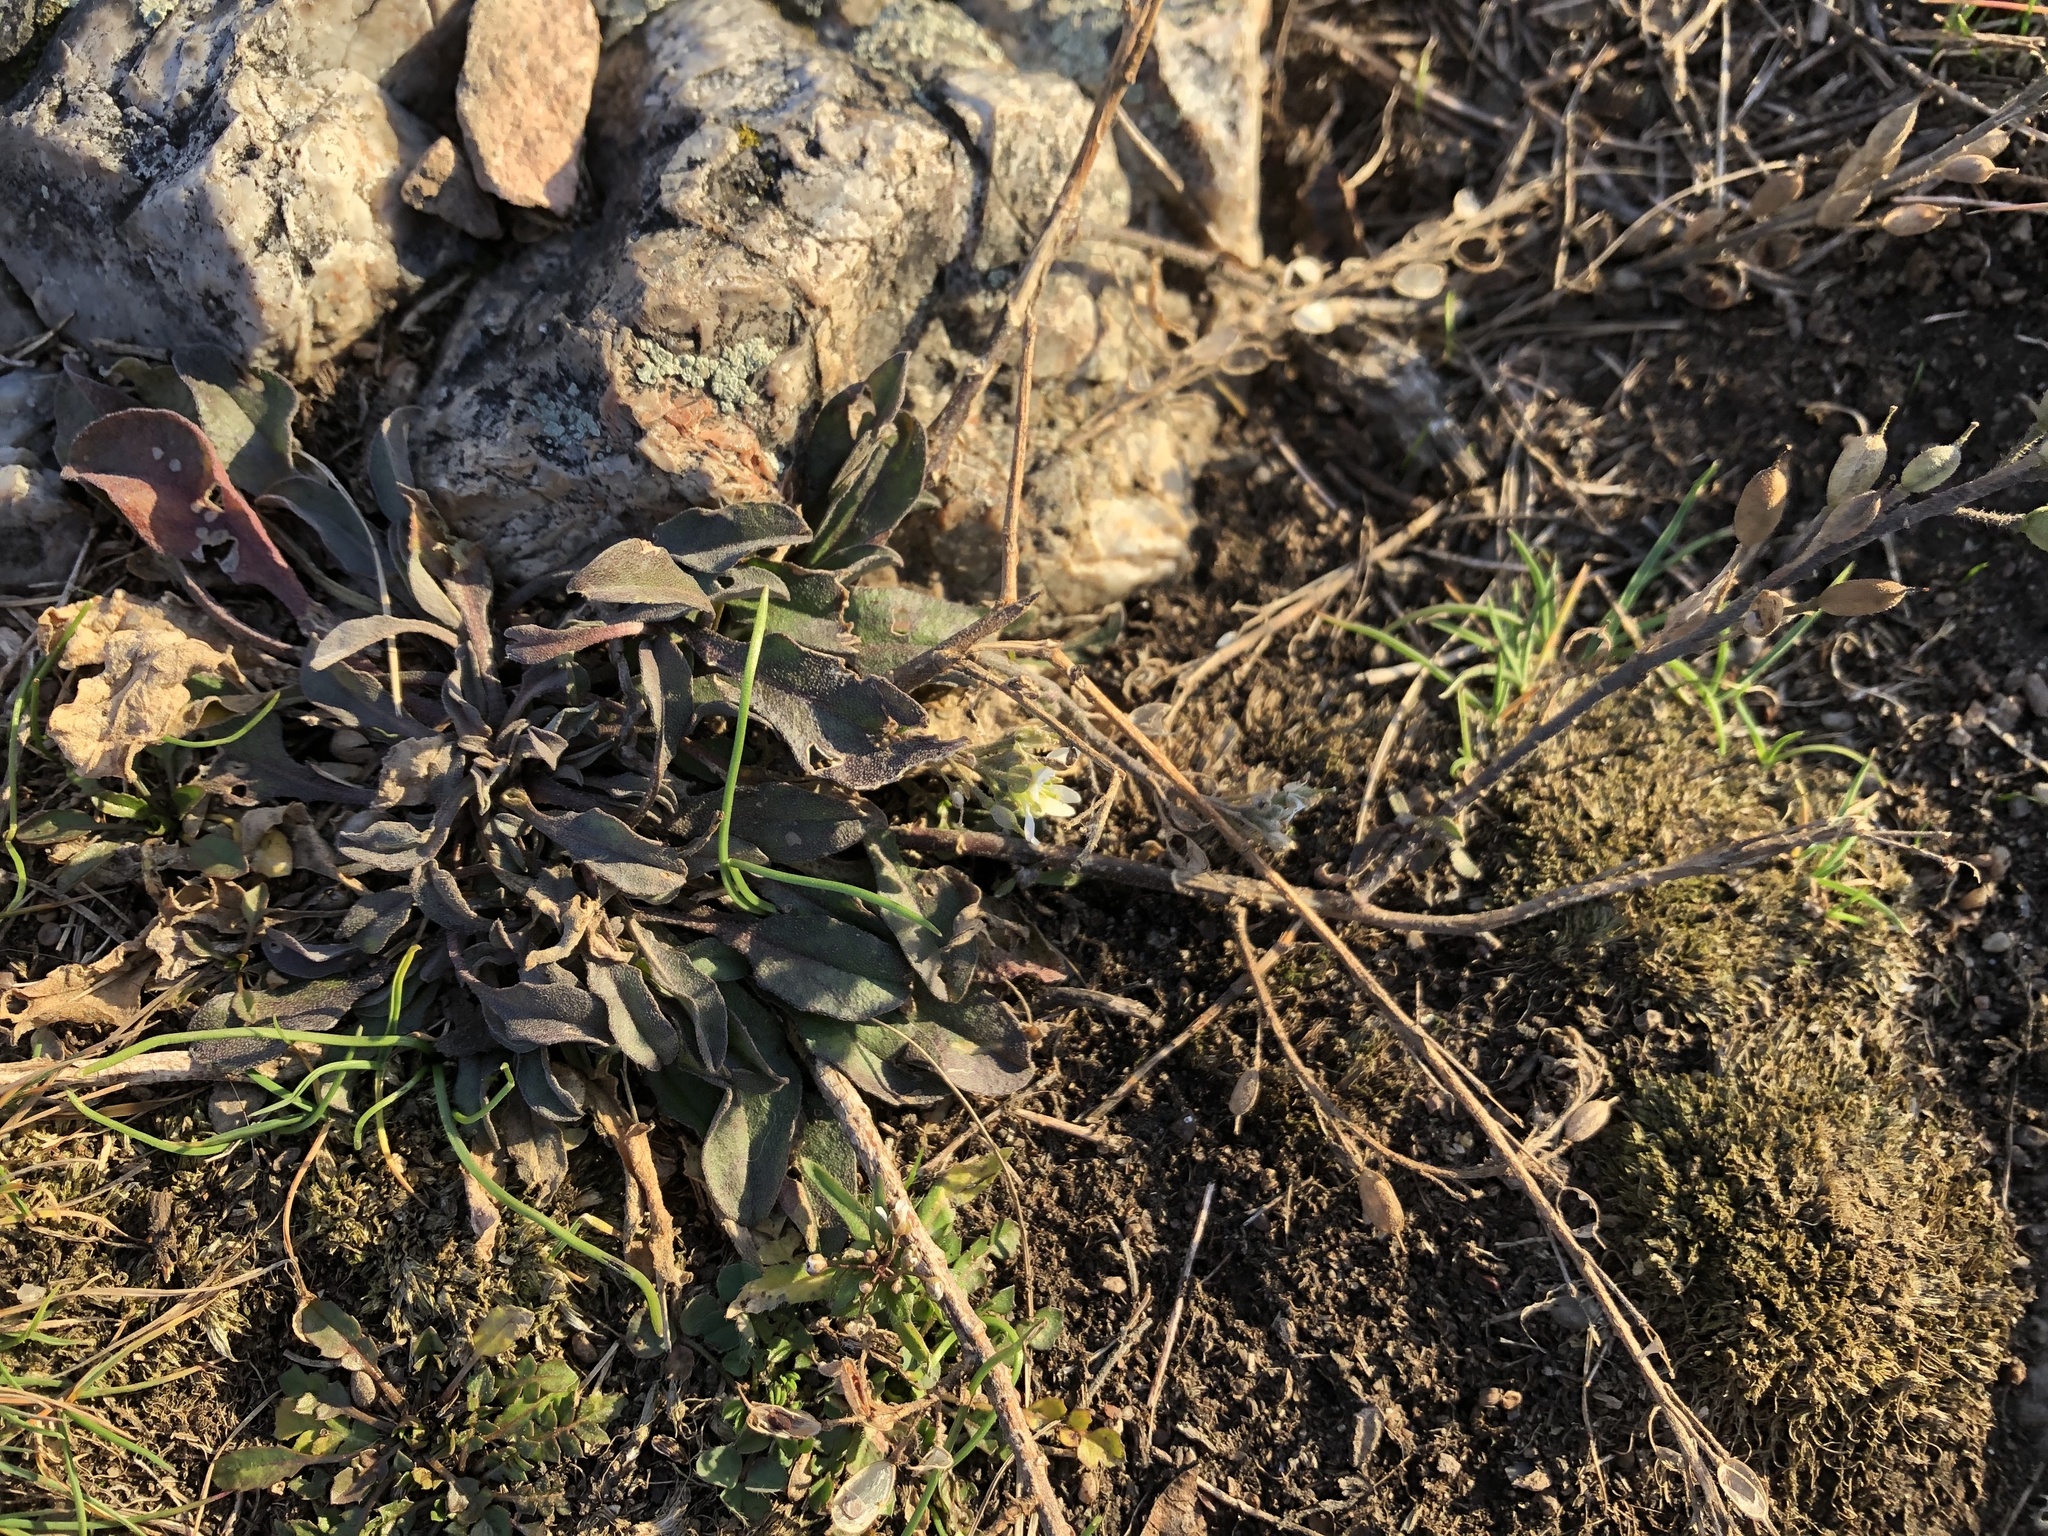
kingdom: Plantae
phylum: Tracheophyta
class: Magnoliopsida
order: Brassicales
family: Brassicaceae
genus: Berteroa
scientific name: Berteroa incana
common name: Hoary alison
